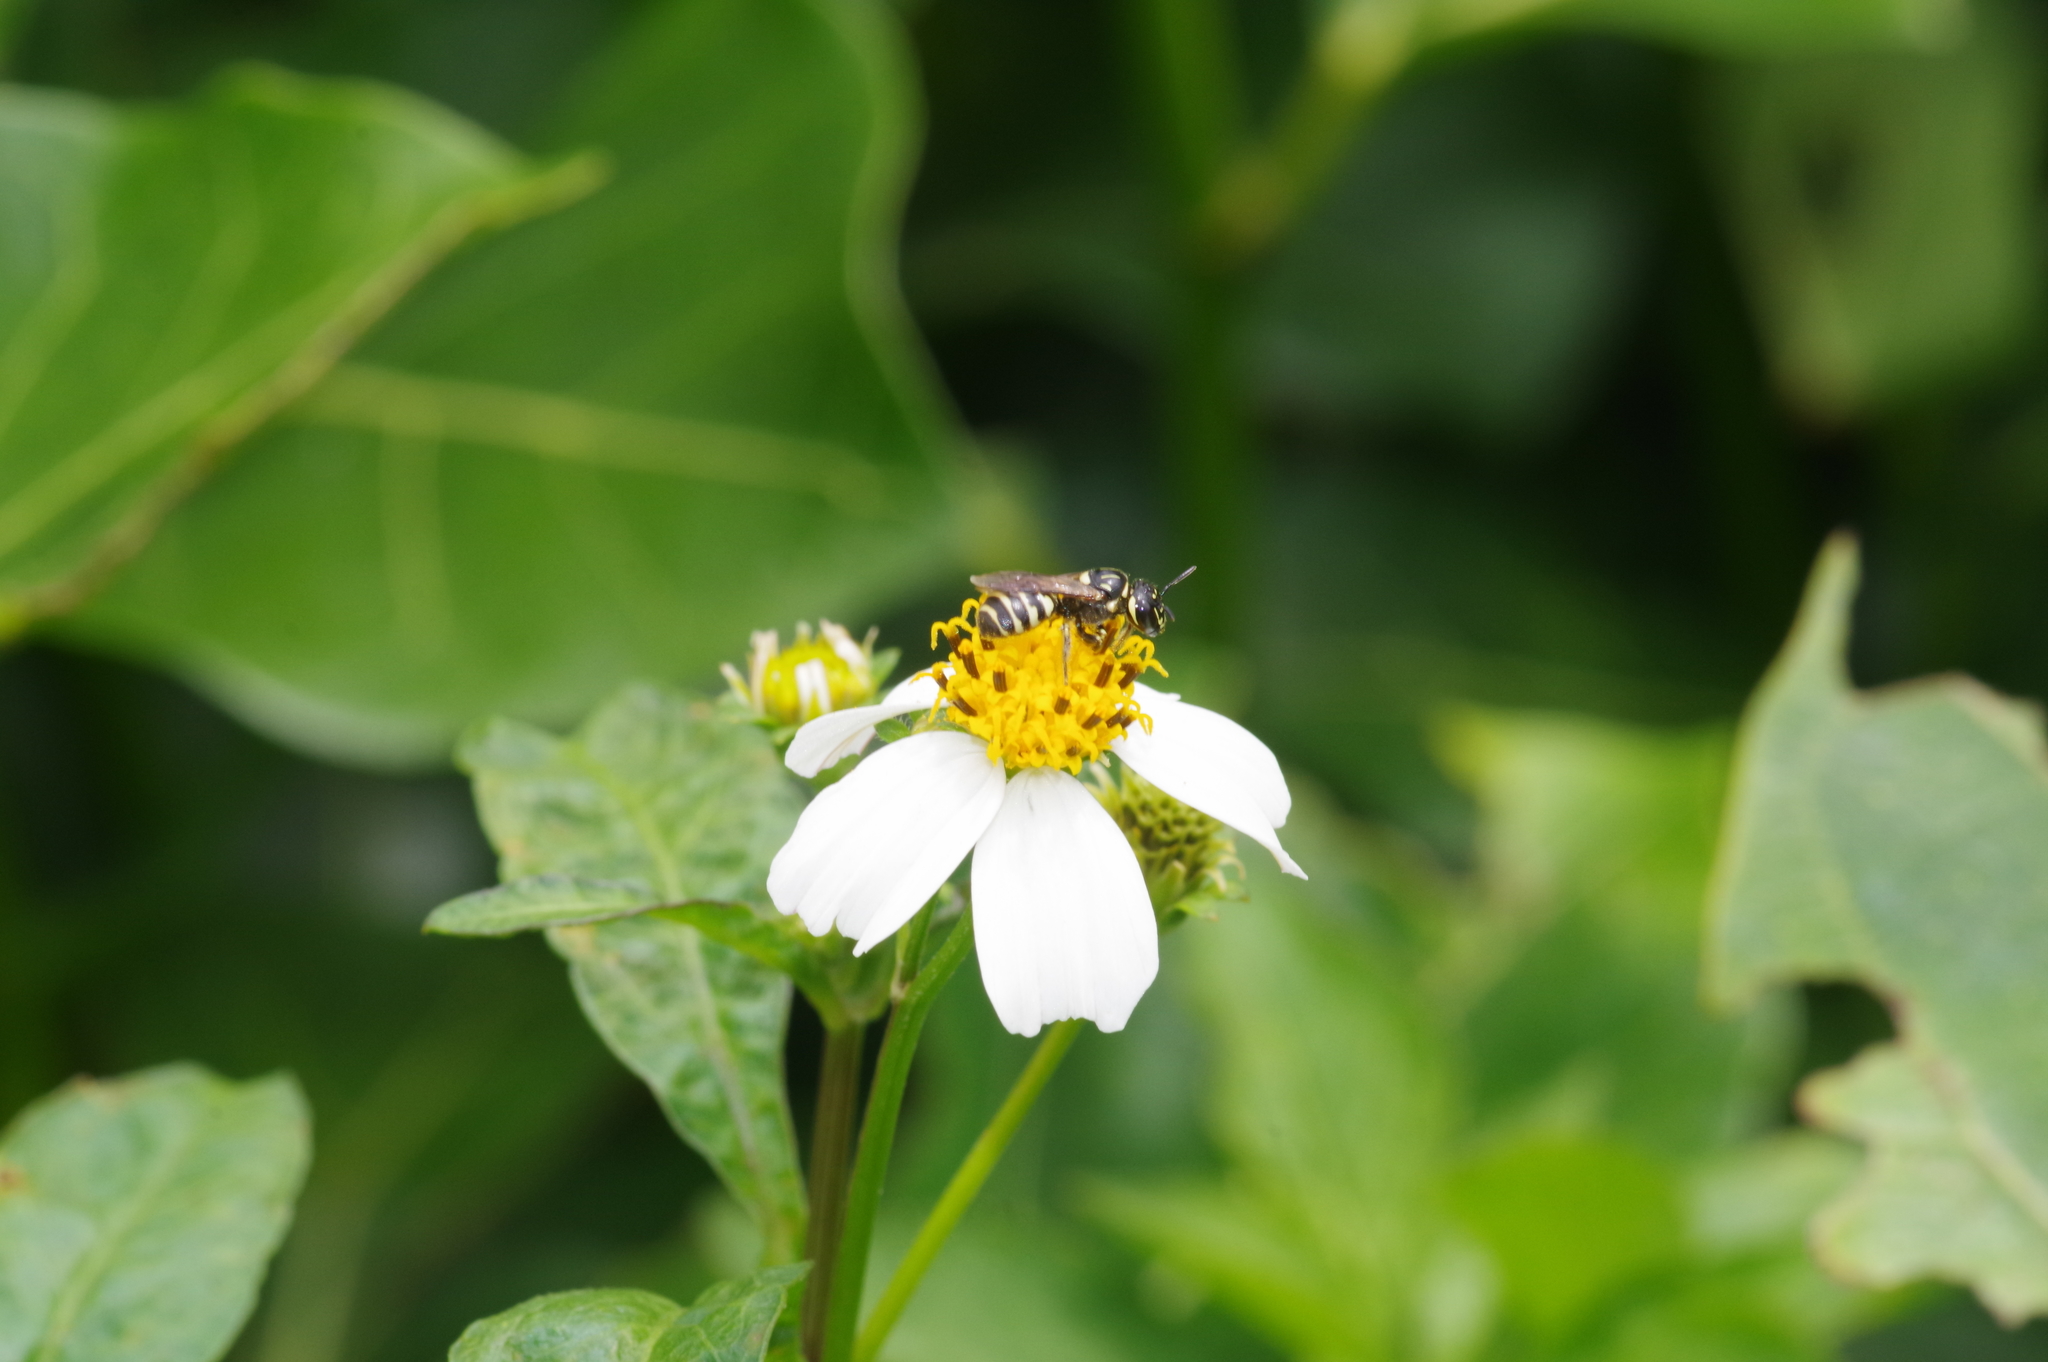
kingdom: Animalia
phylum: Arthropoda
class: Insecta
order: Hymenoptera
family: Apidae
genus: Ceratina
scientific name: Ceratina okinawana
